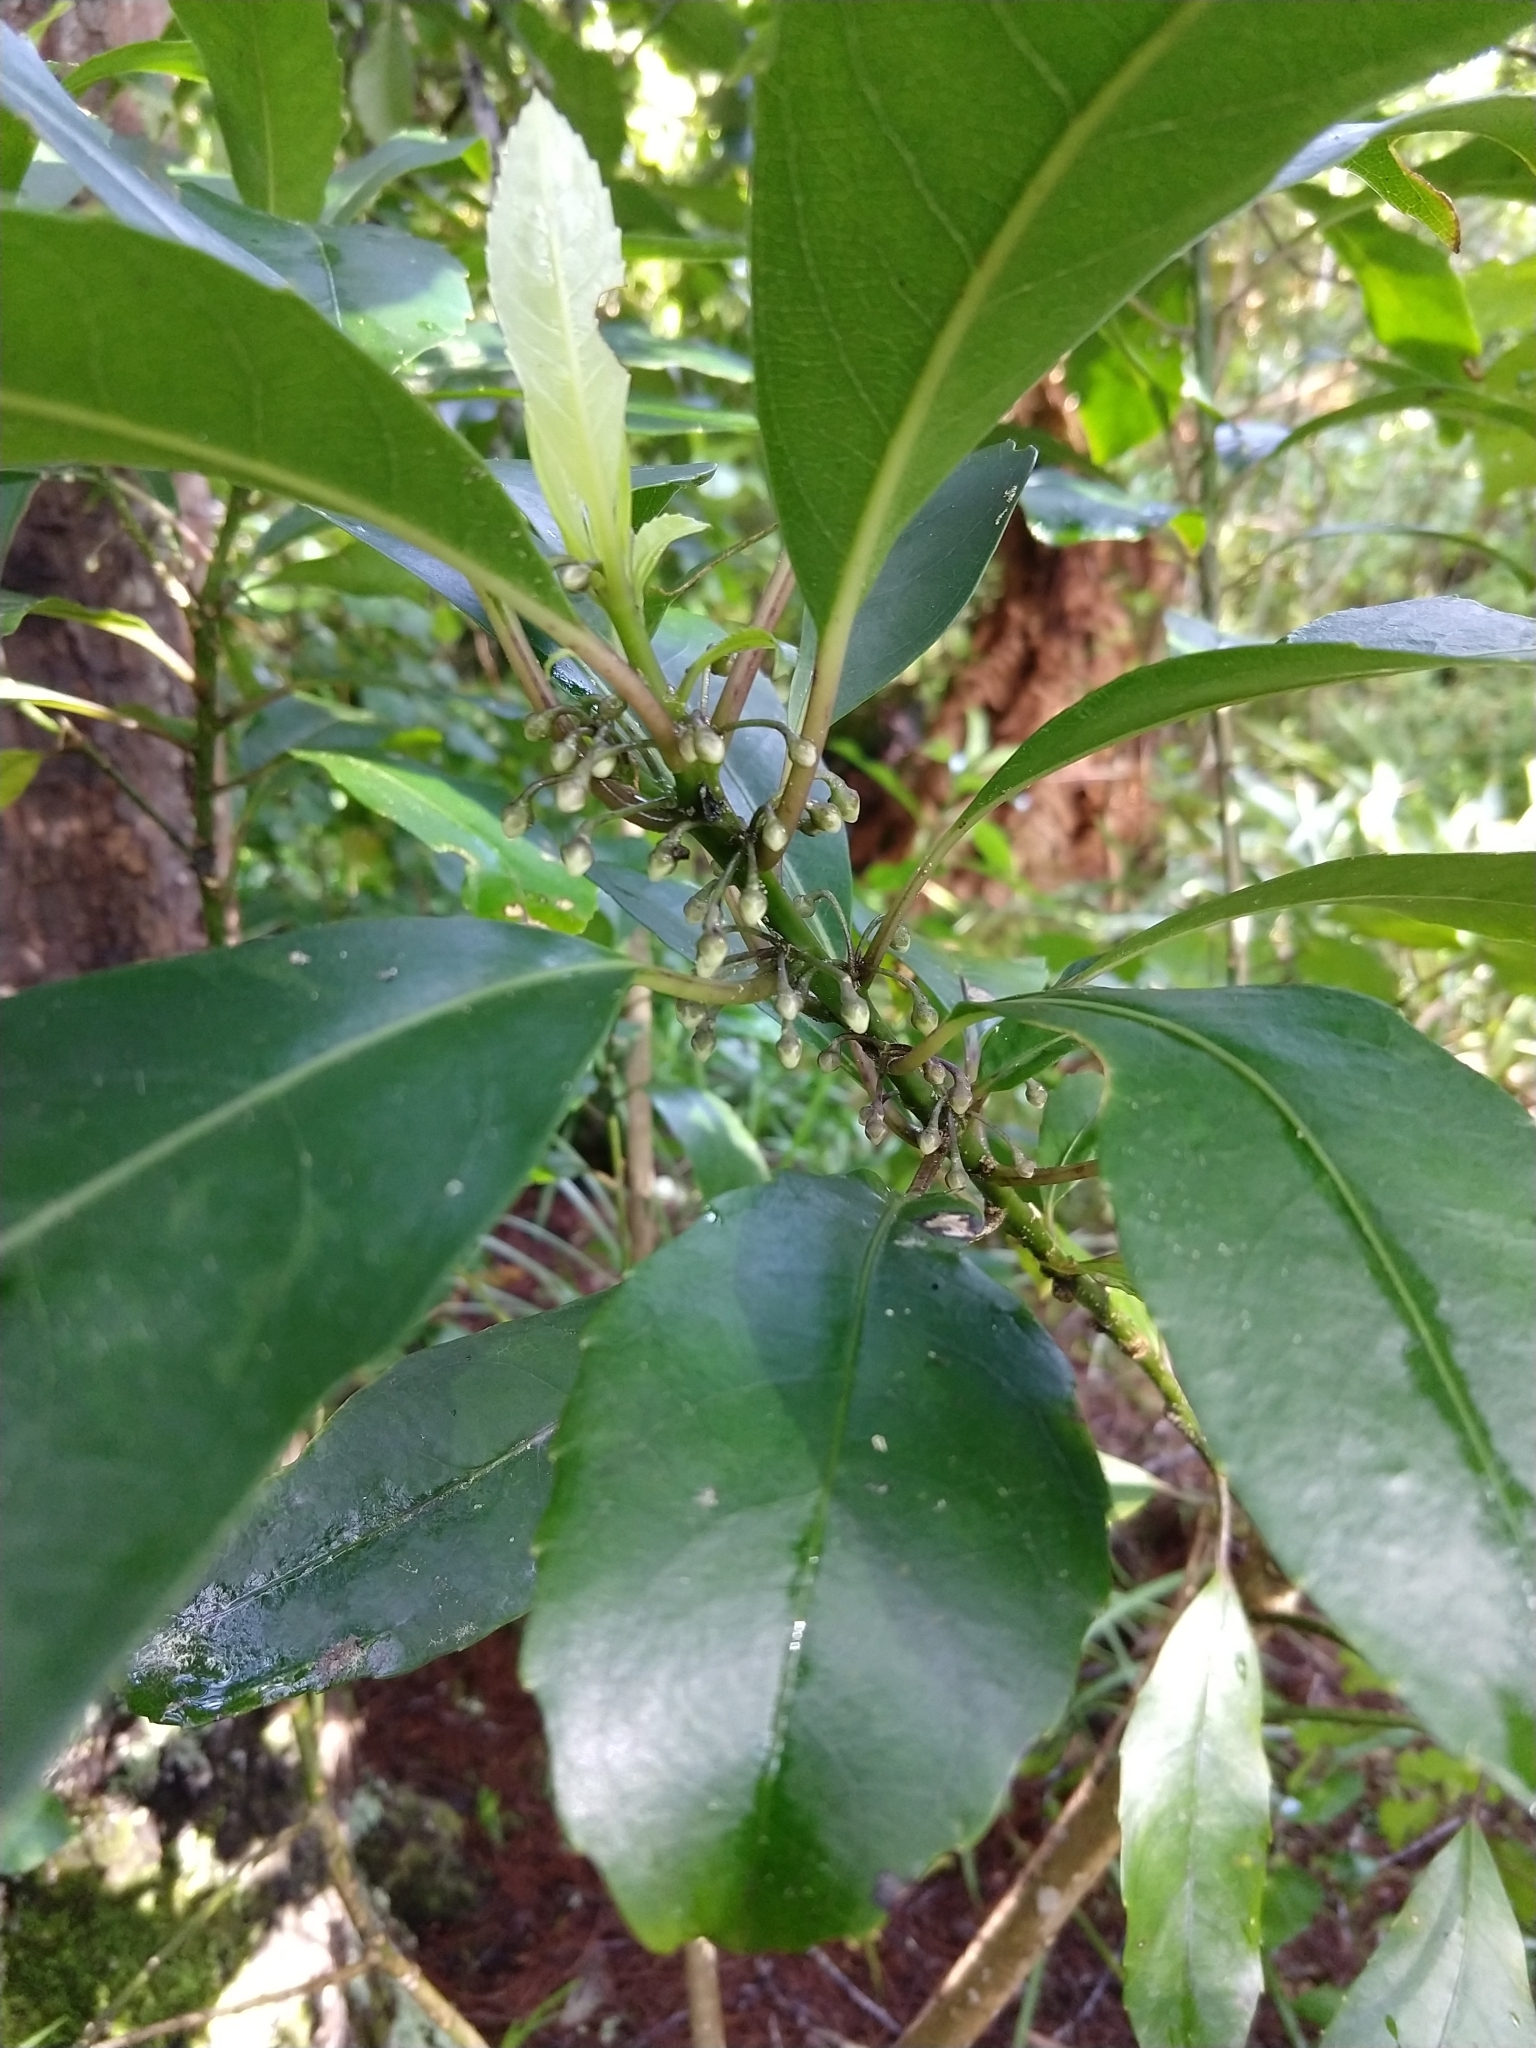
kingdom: Plantae
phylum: Tracheophyta
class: Magnoliopsida
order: Malpighiales
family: Violaceae
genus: Melicytus
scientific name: Melicytus macrophyllus
